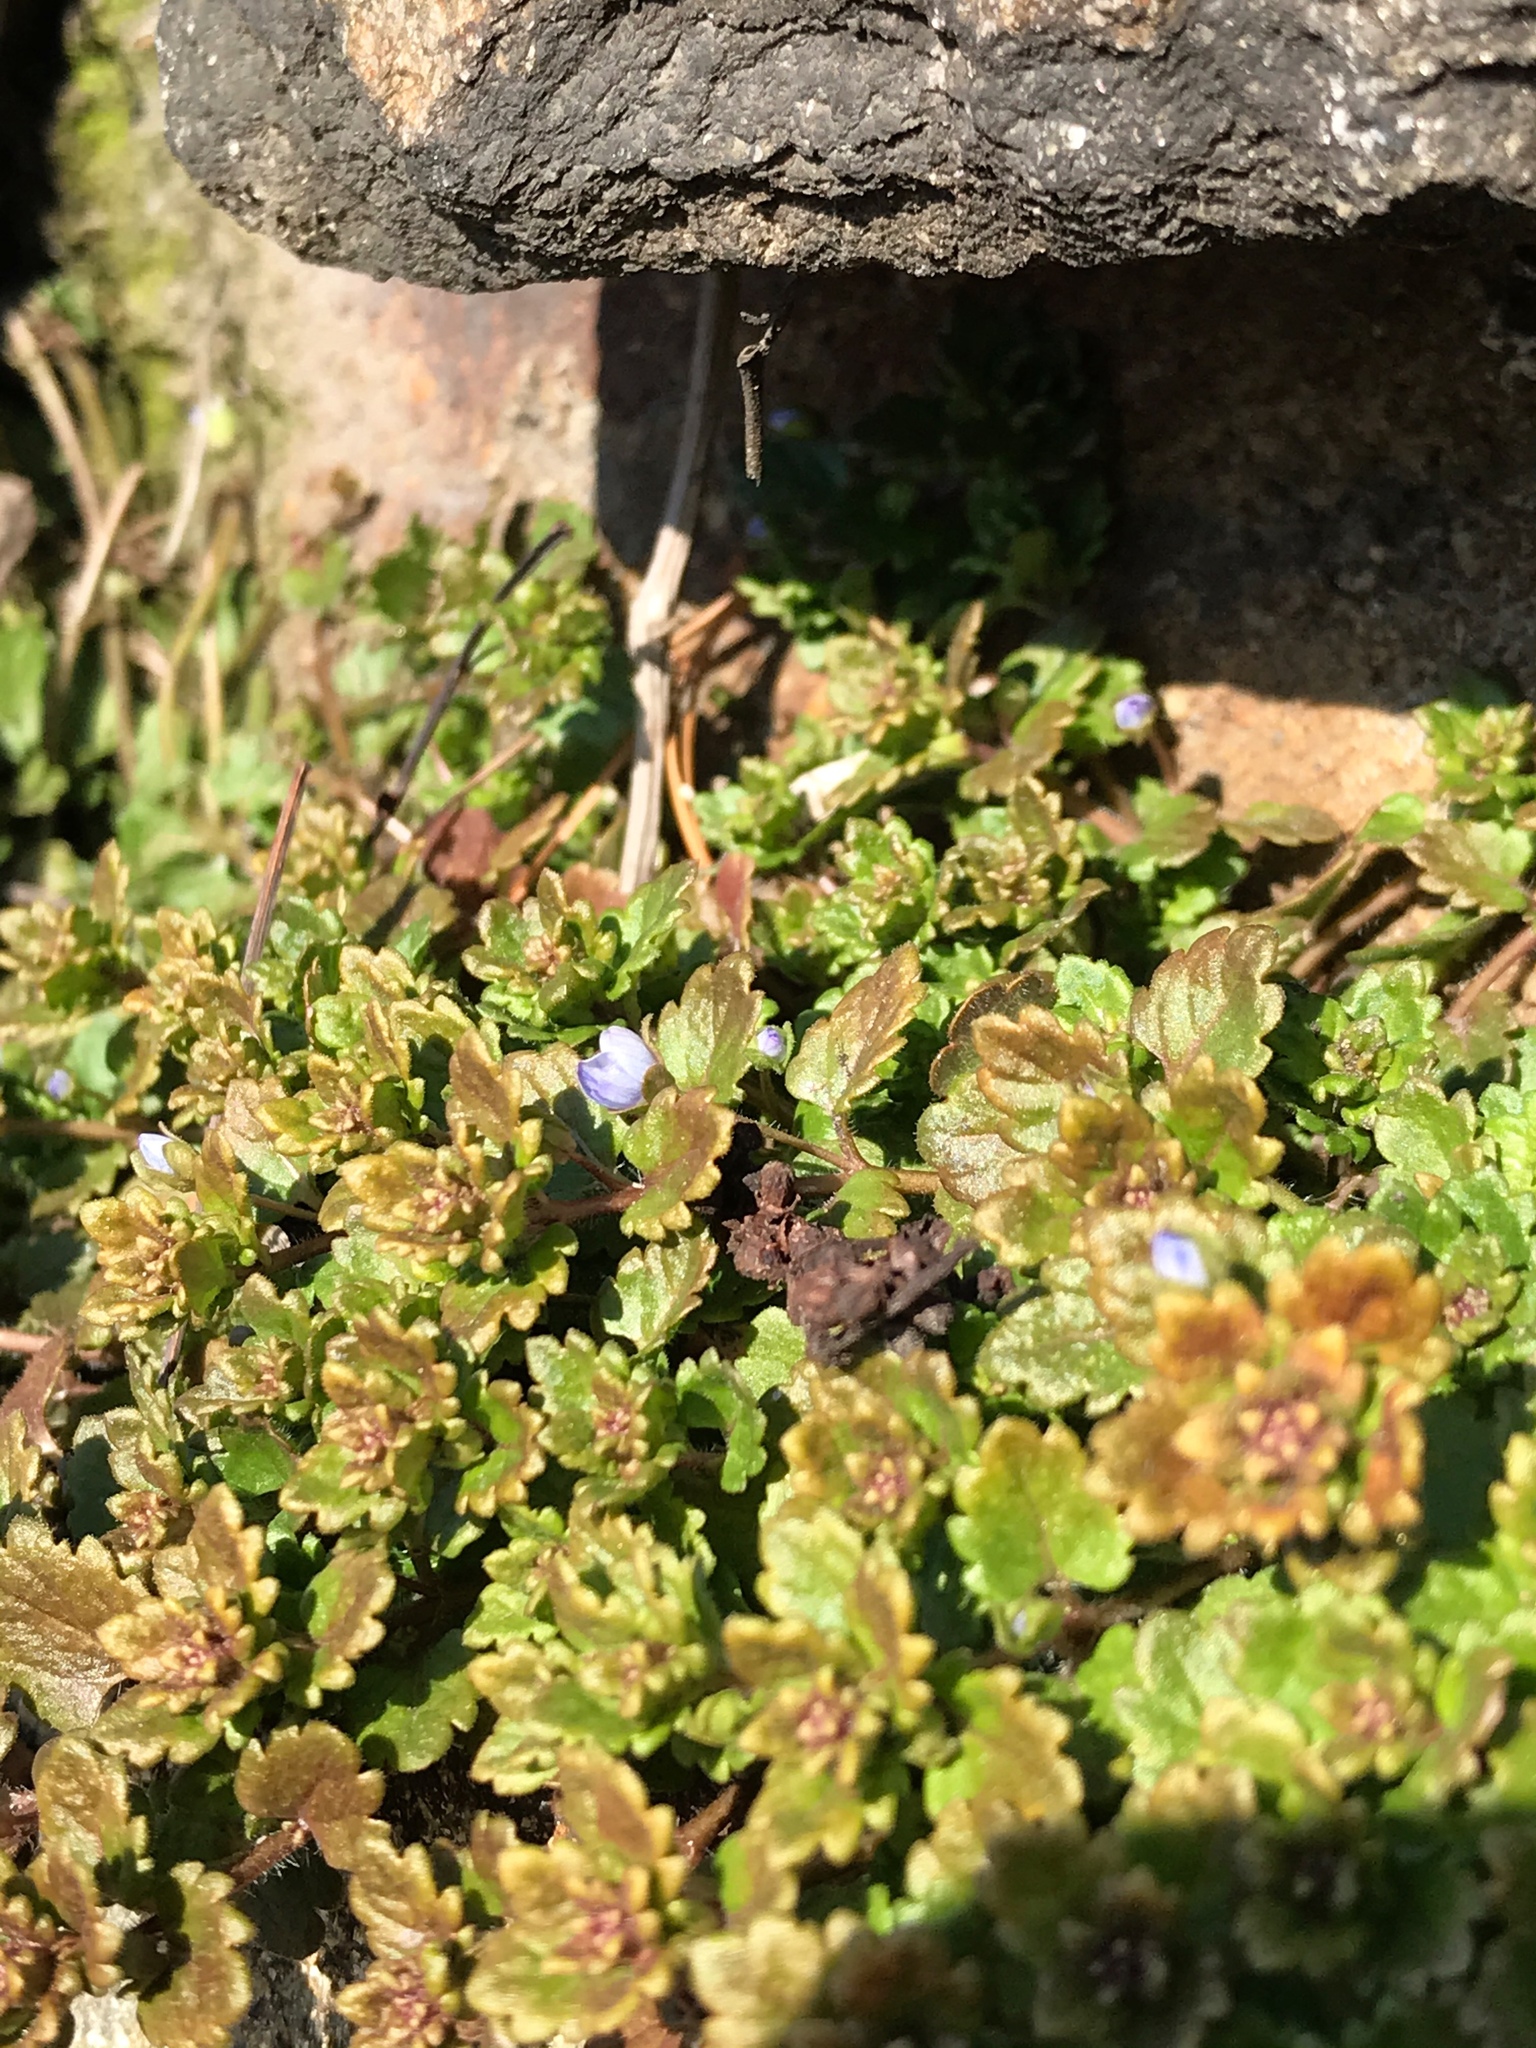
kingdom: Plantae
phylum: Tracheophyta
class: Magnoliopsida
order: Lamiales
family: Plantaginaceae
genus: Veronica
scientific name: Veronica polita
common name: Grey field-speedwell
